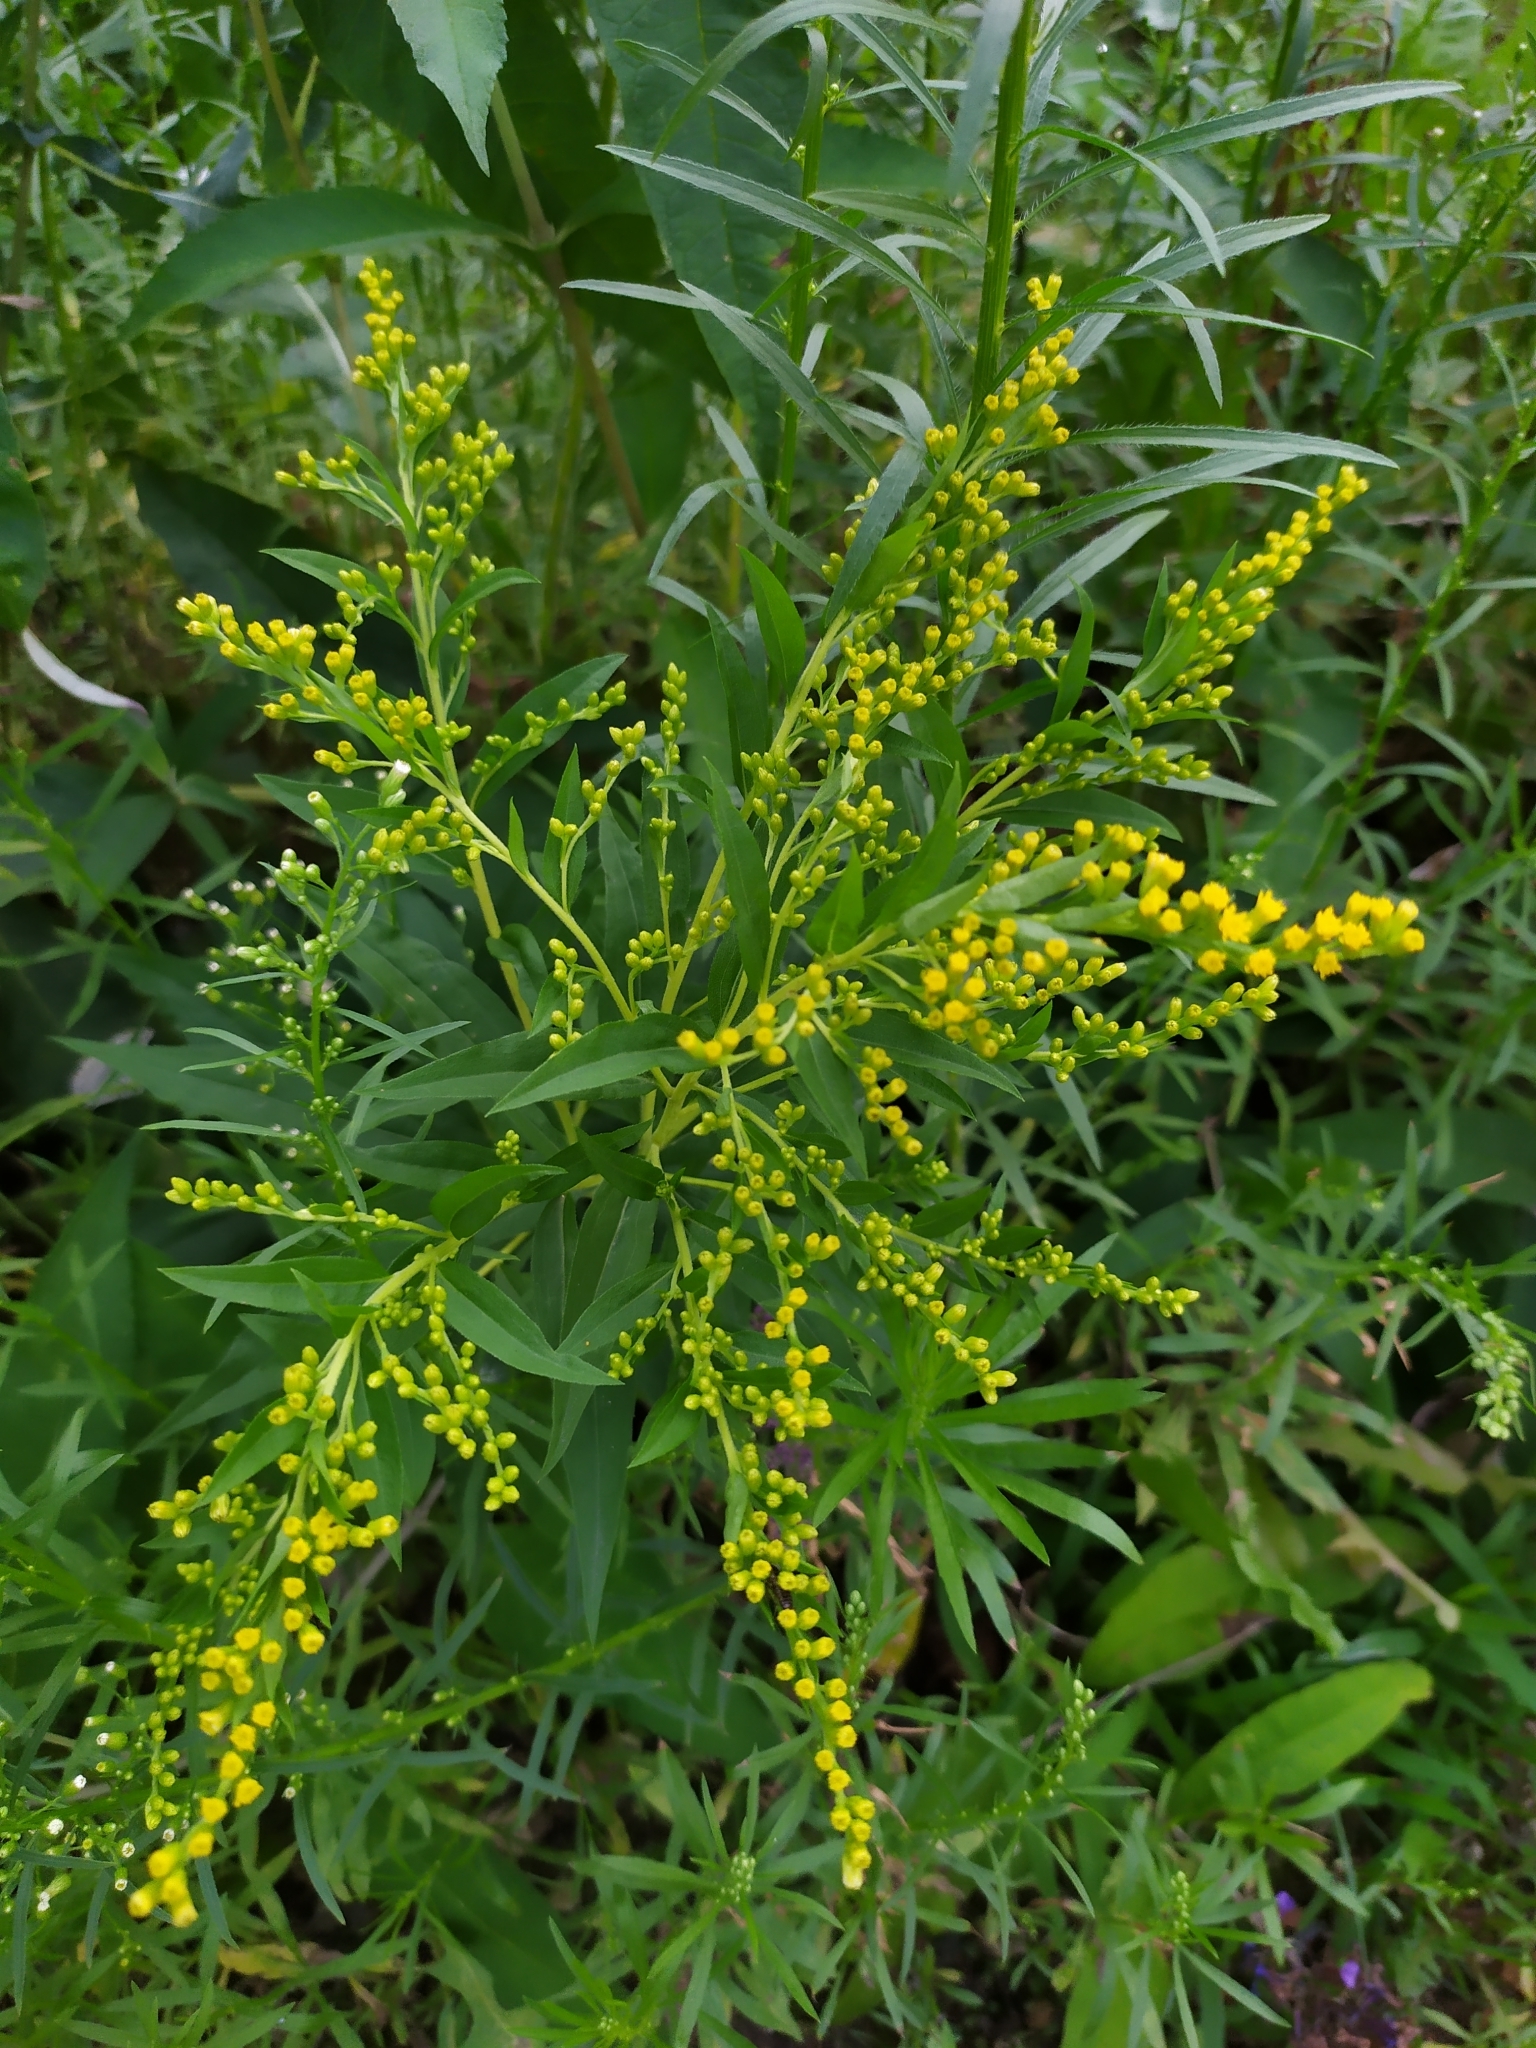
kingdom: Plantae
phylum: Tracheophyta
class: Magnoliopsida
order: Asterales
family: Asteraceae
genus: Solidago
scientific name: Solidago gigantea
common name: Giant goldenrod
